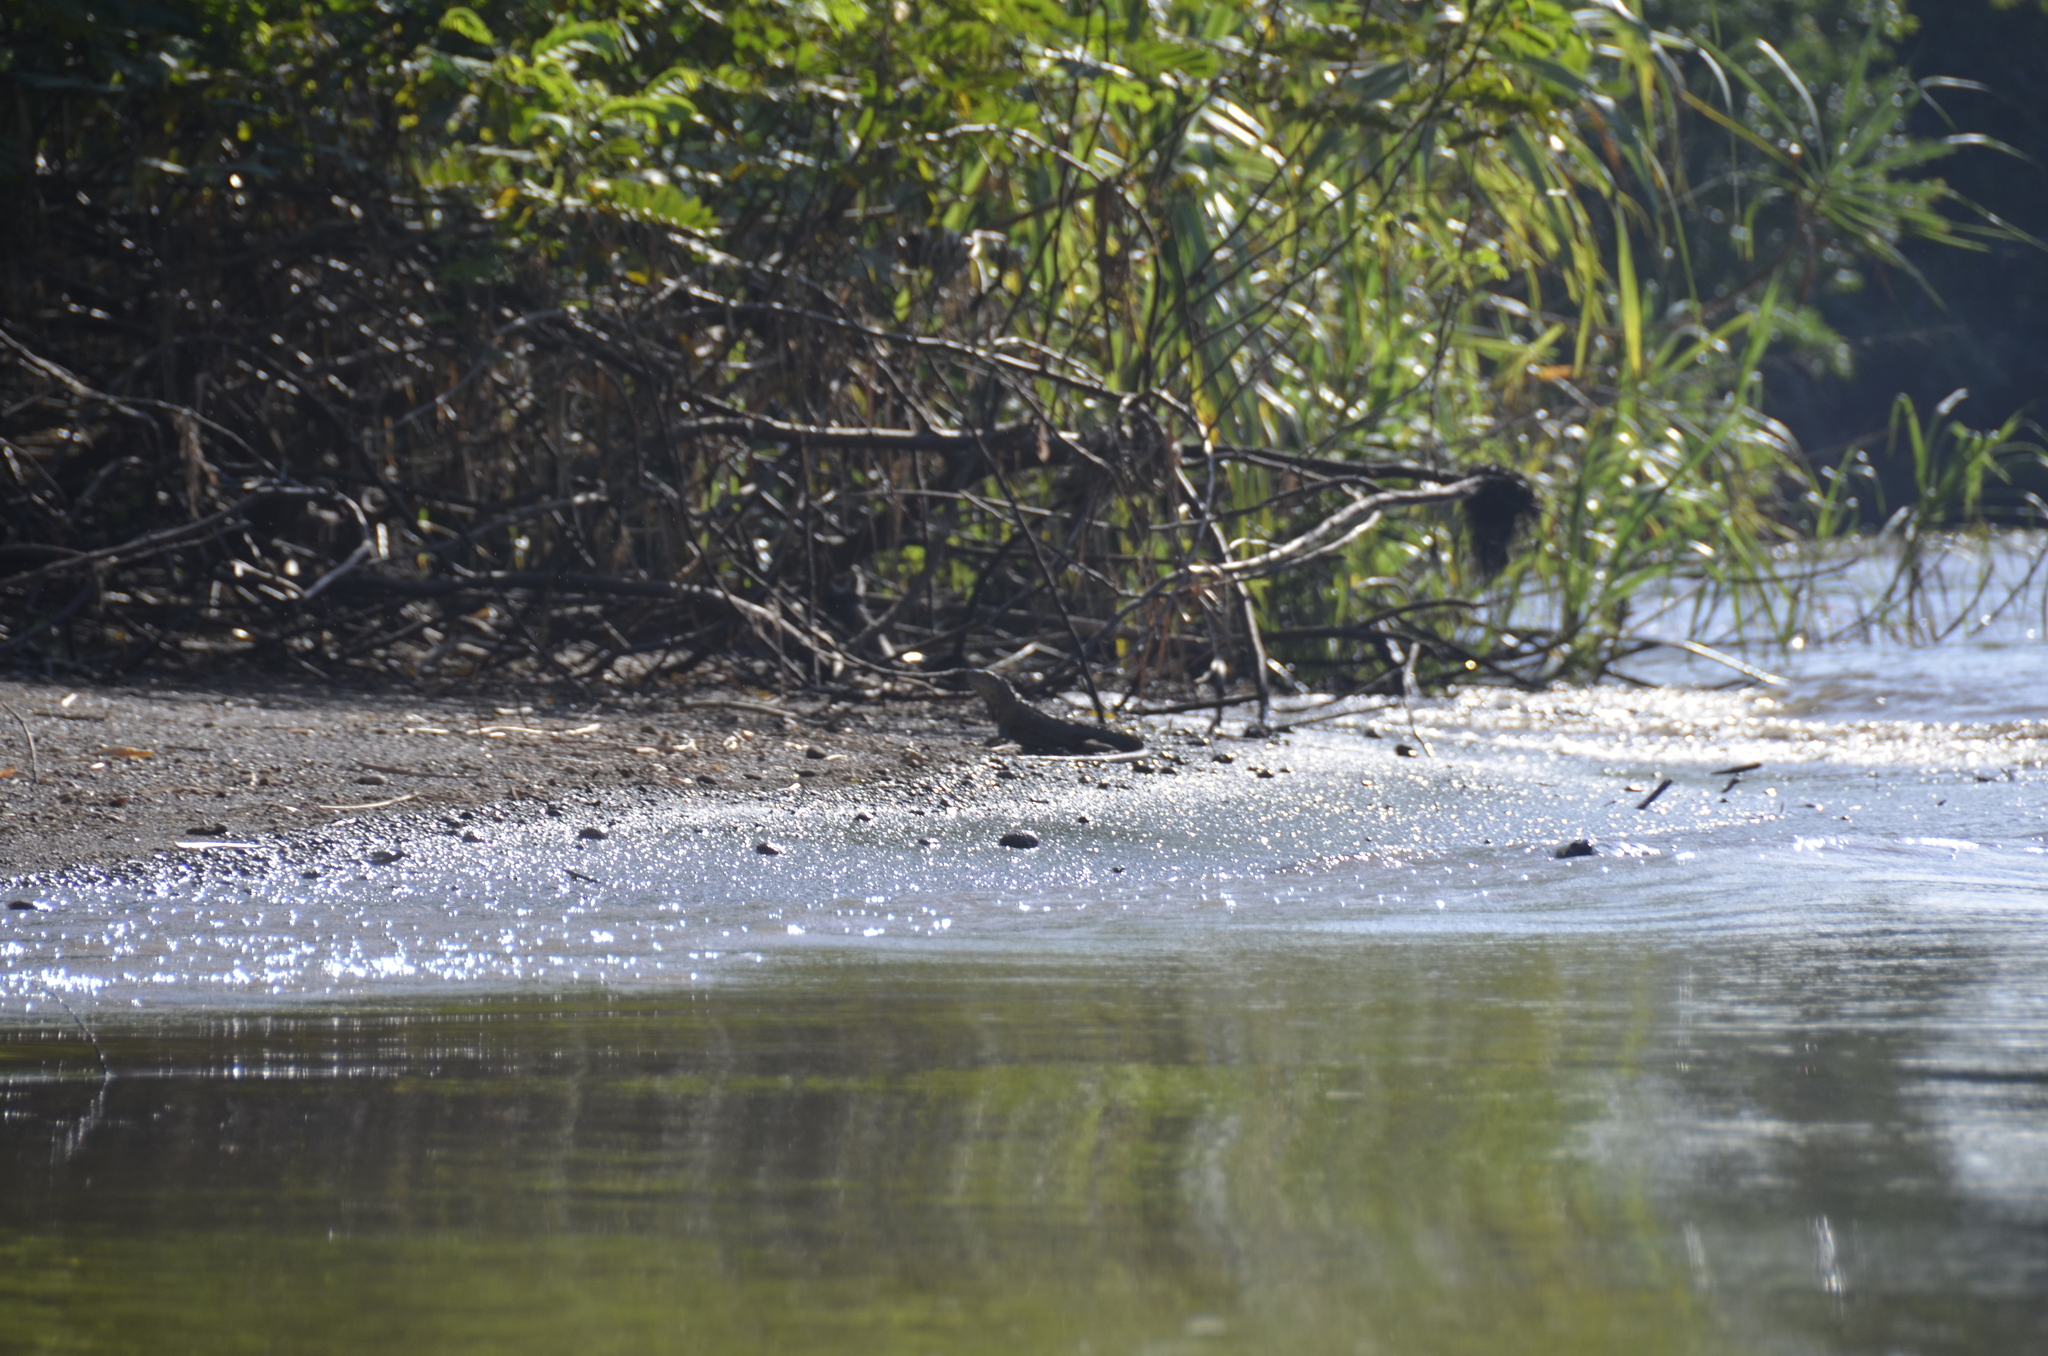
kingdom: Animalia
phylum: Chordata
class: Squamata
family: Iguanidae
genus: Iguana
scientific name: Iguana iguana
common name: Green iguana
